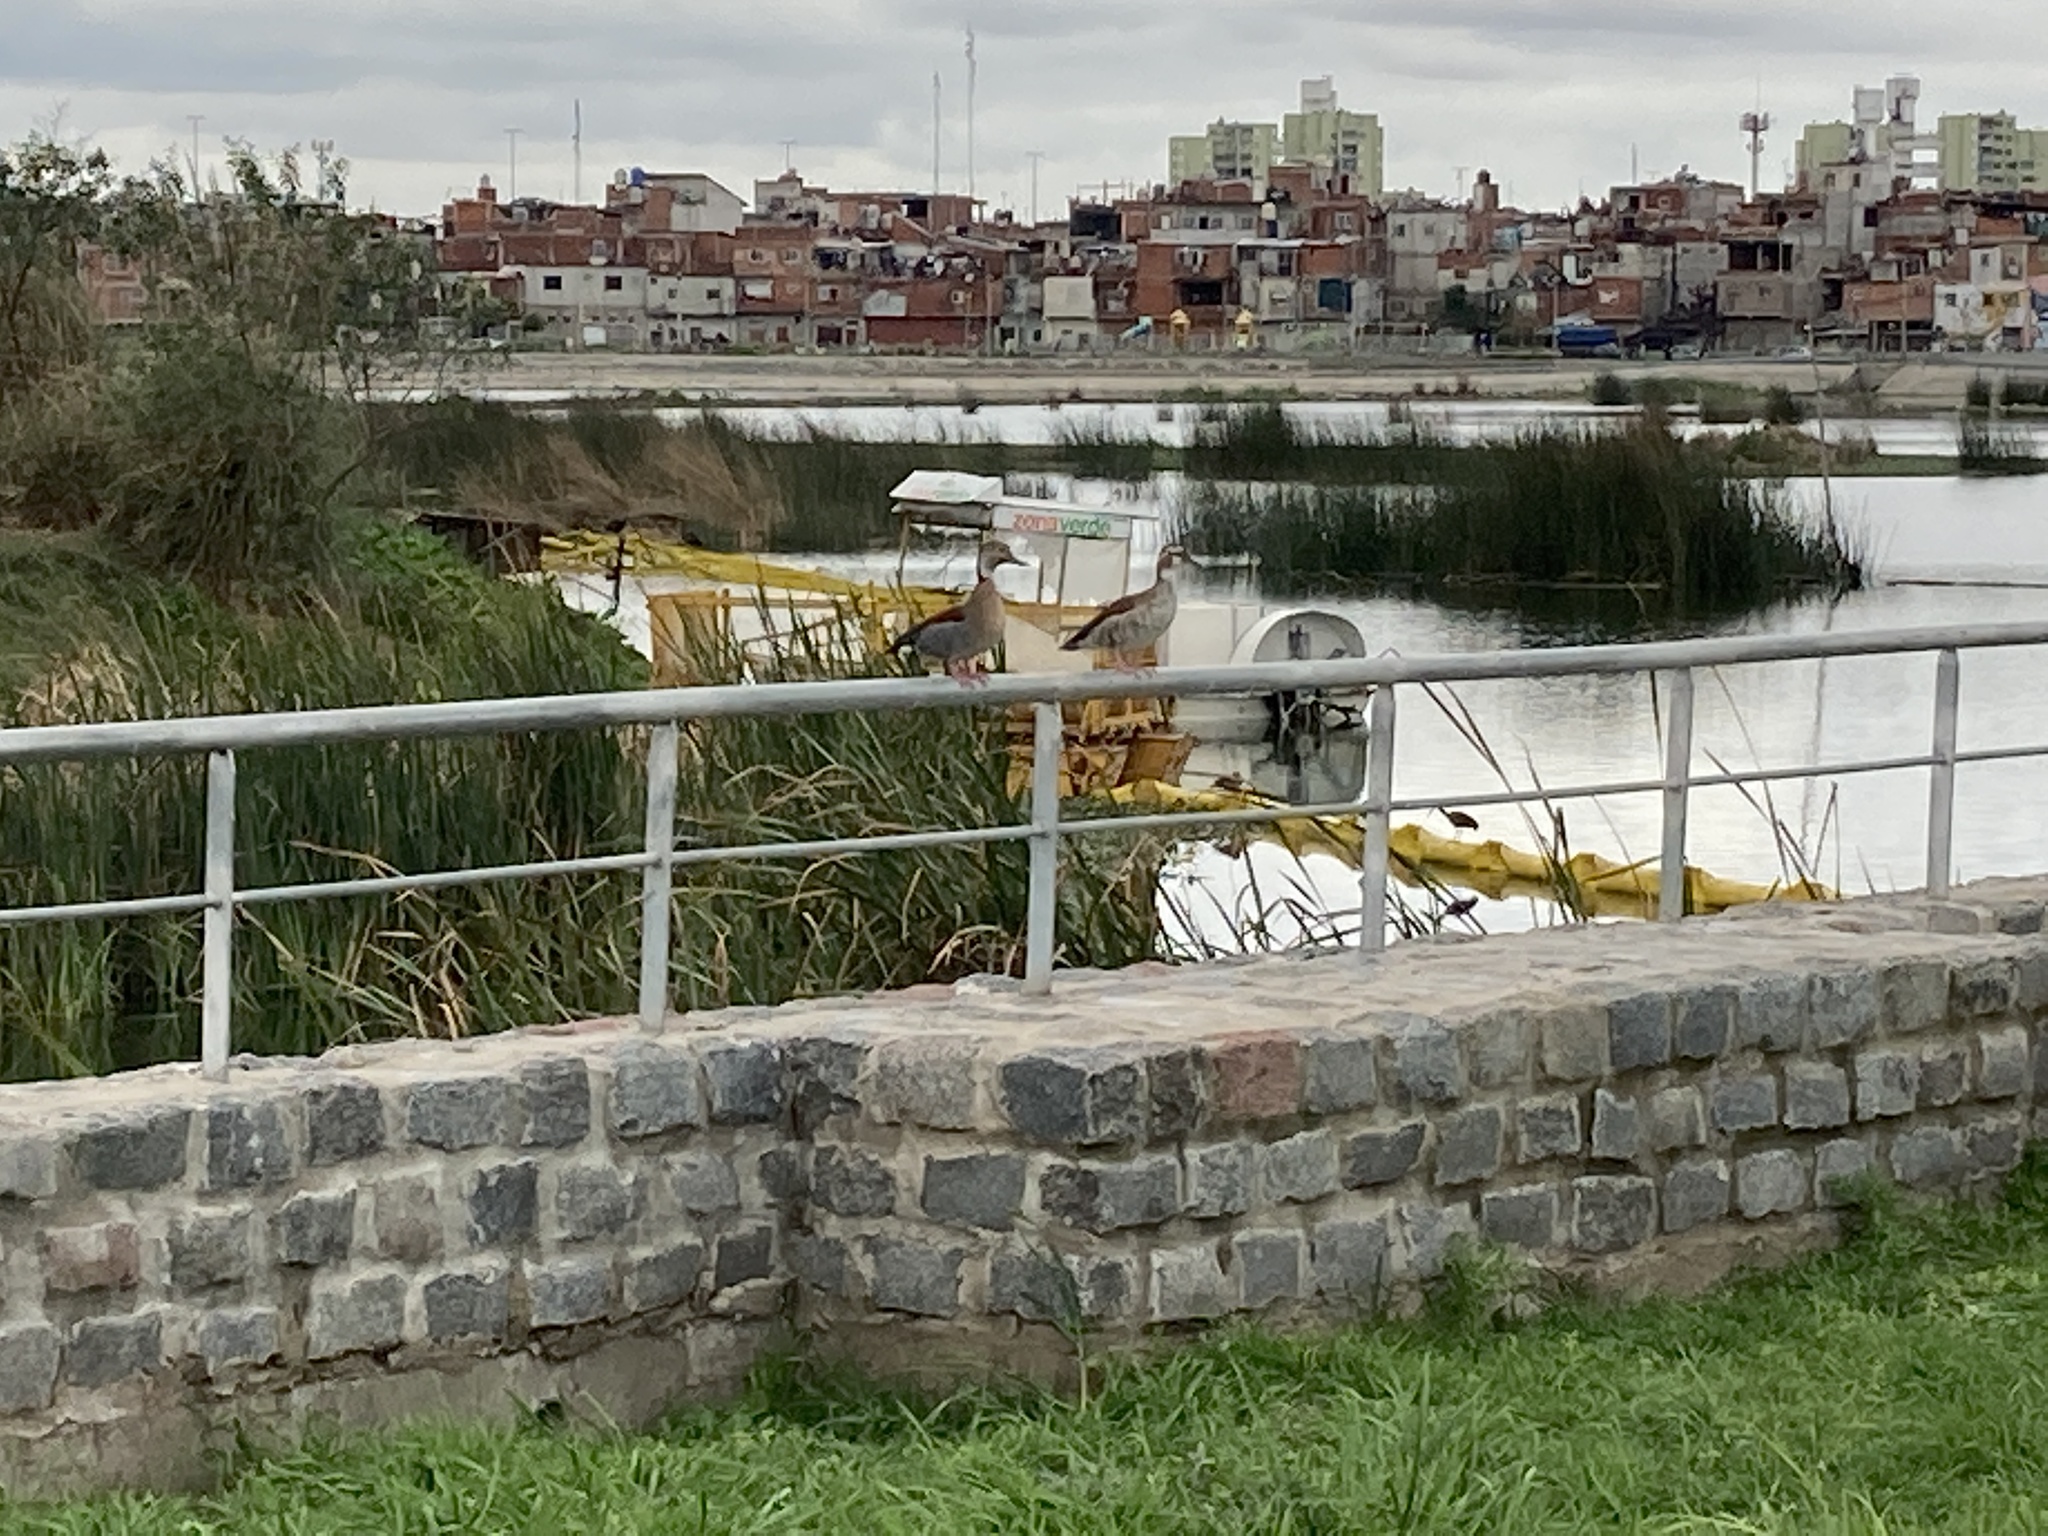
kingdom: Animalia
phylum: Chordata
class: Aves
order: Anseriformes
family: Anatidae
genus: Callonetta
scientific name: Callonetta leucophrys
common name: Ringed teal
